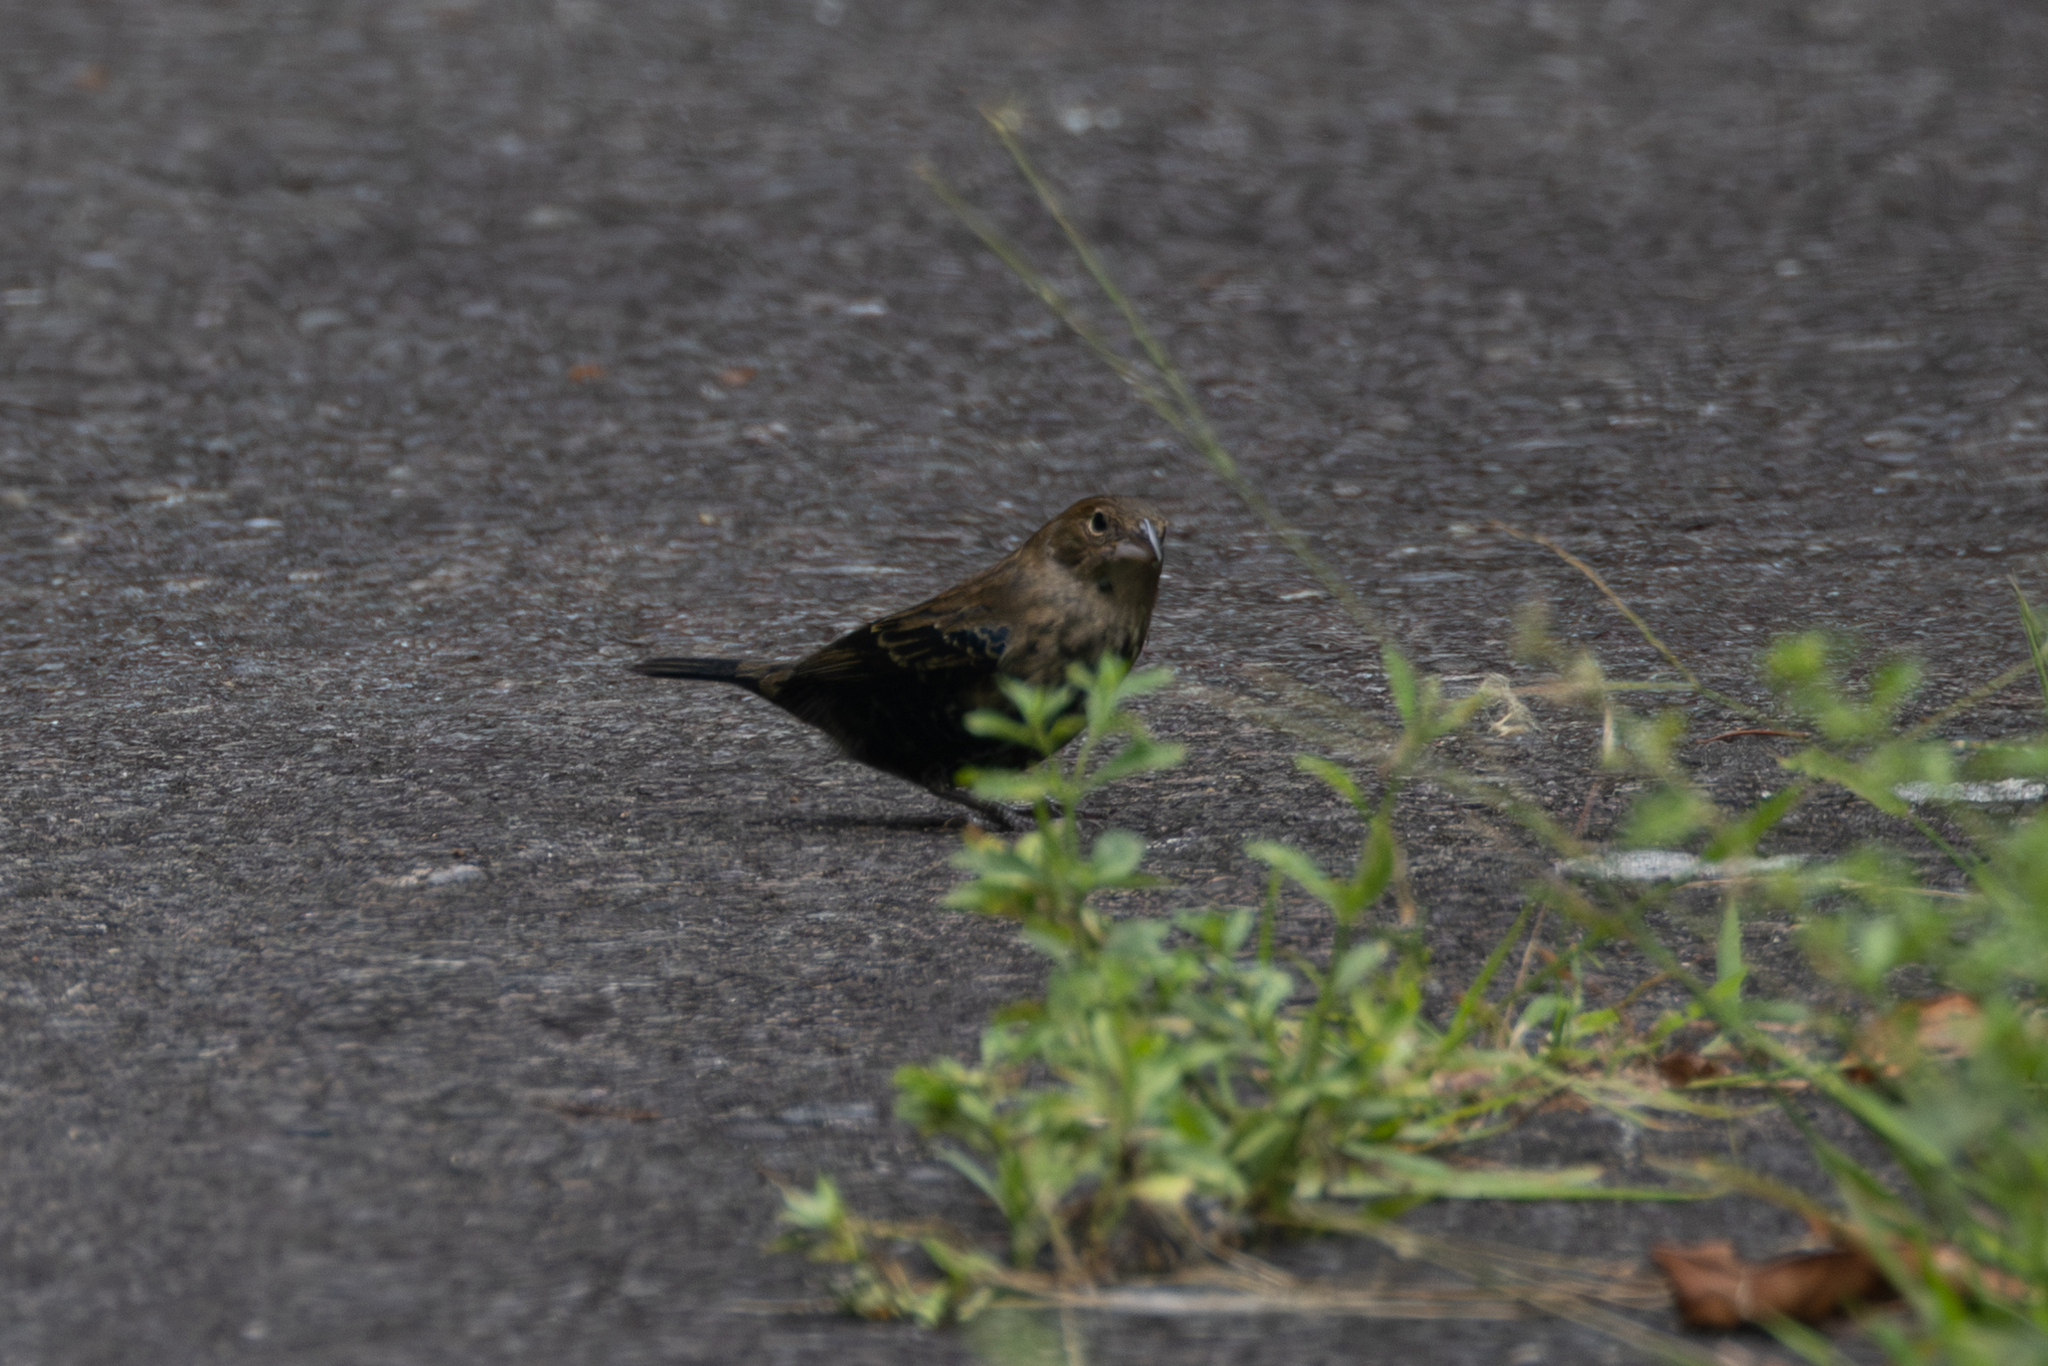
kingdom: Animalia
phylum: Chordata
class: Aves
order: Passeriformes
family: Thraupidae
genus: Volatinia
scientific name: Volatinia jacarina
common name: Blue-black grassquit
